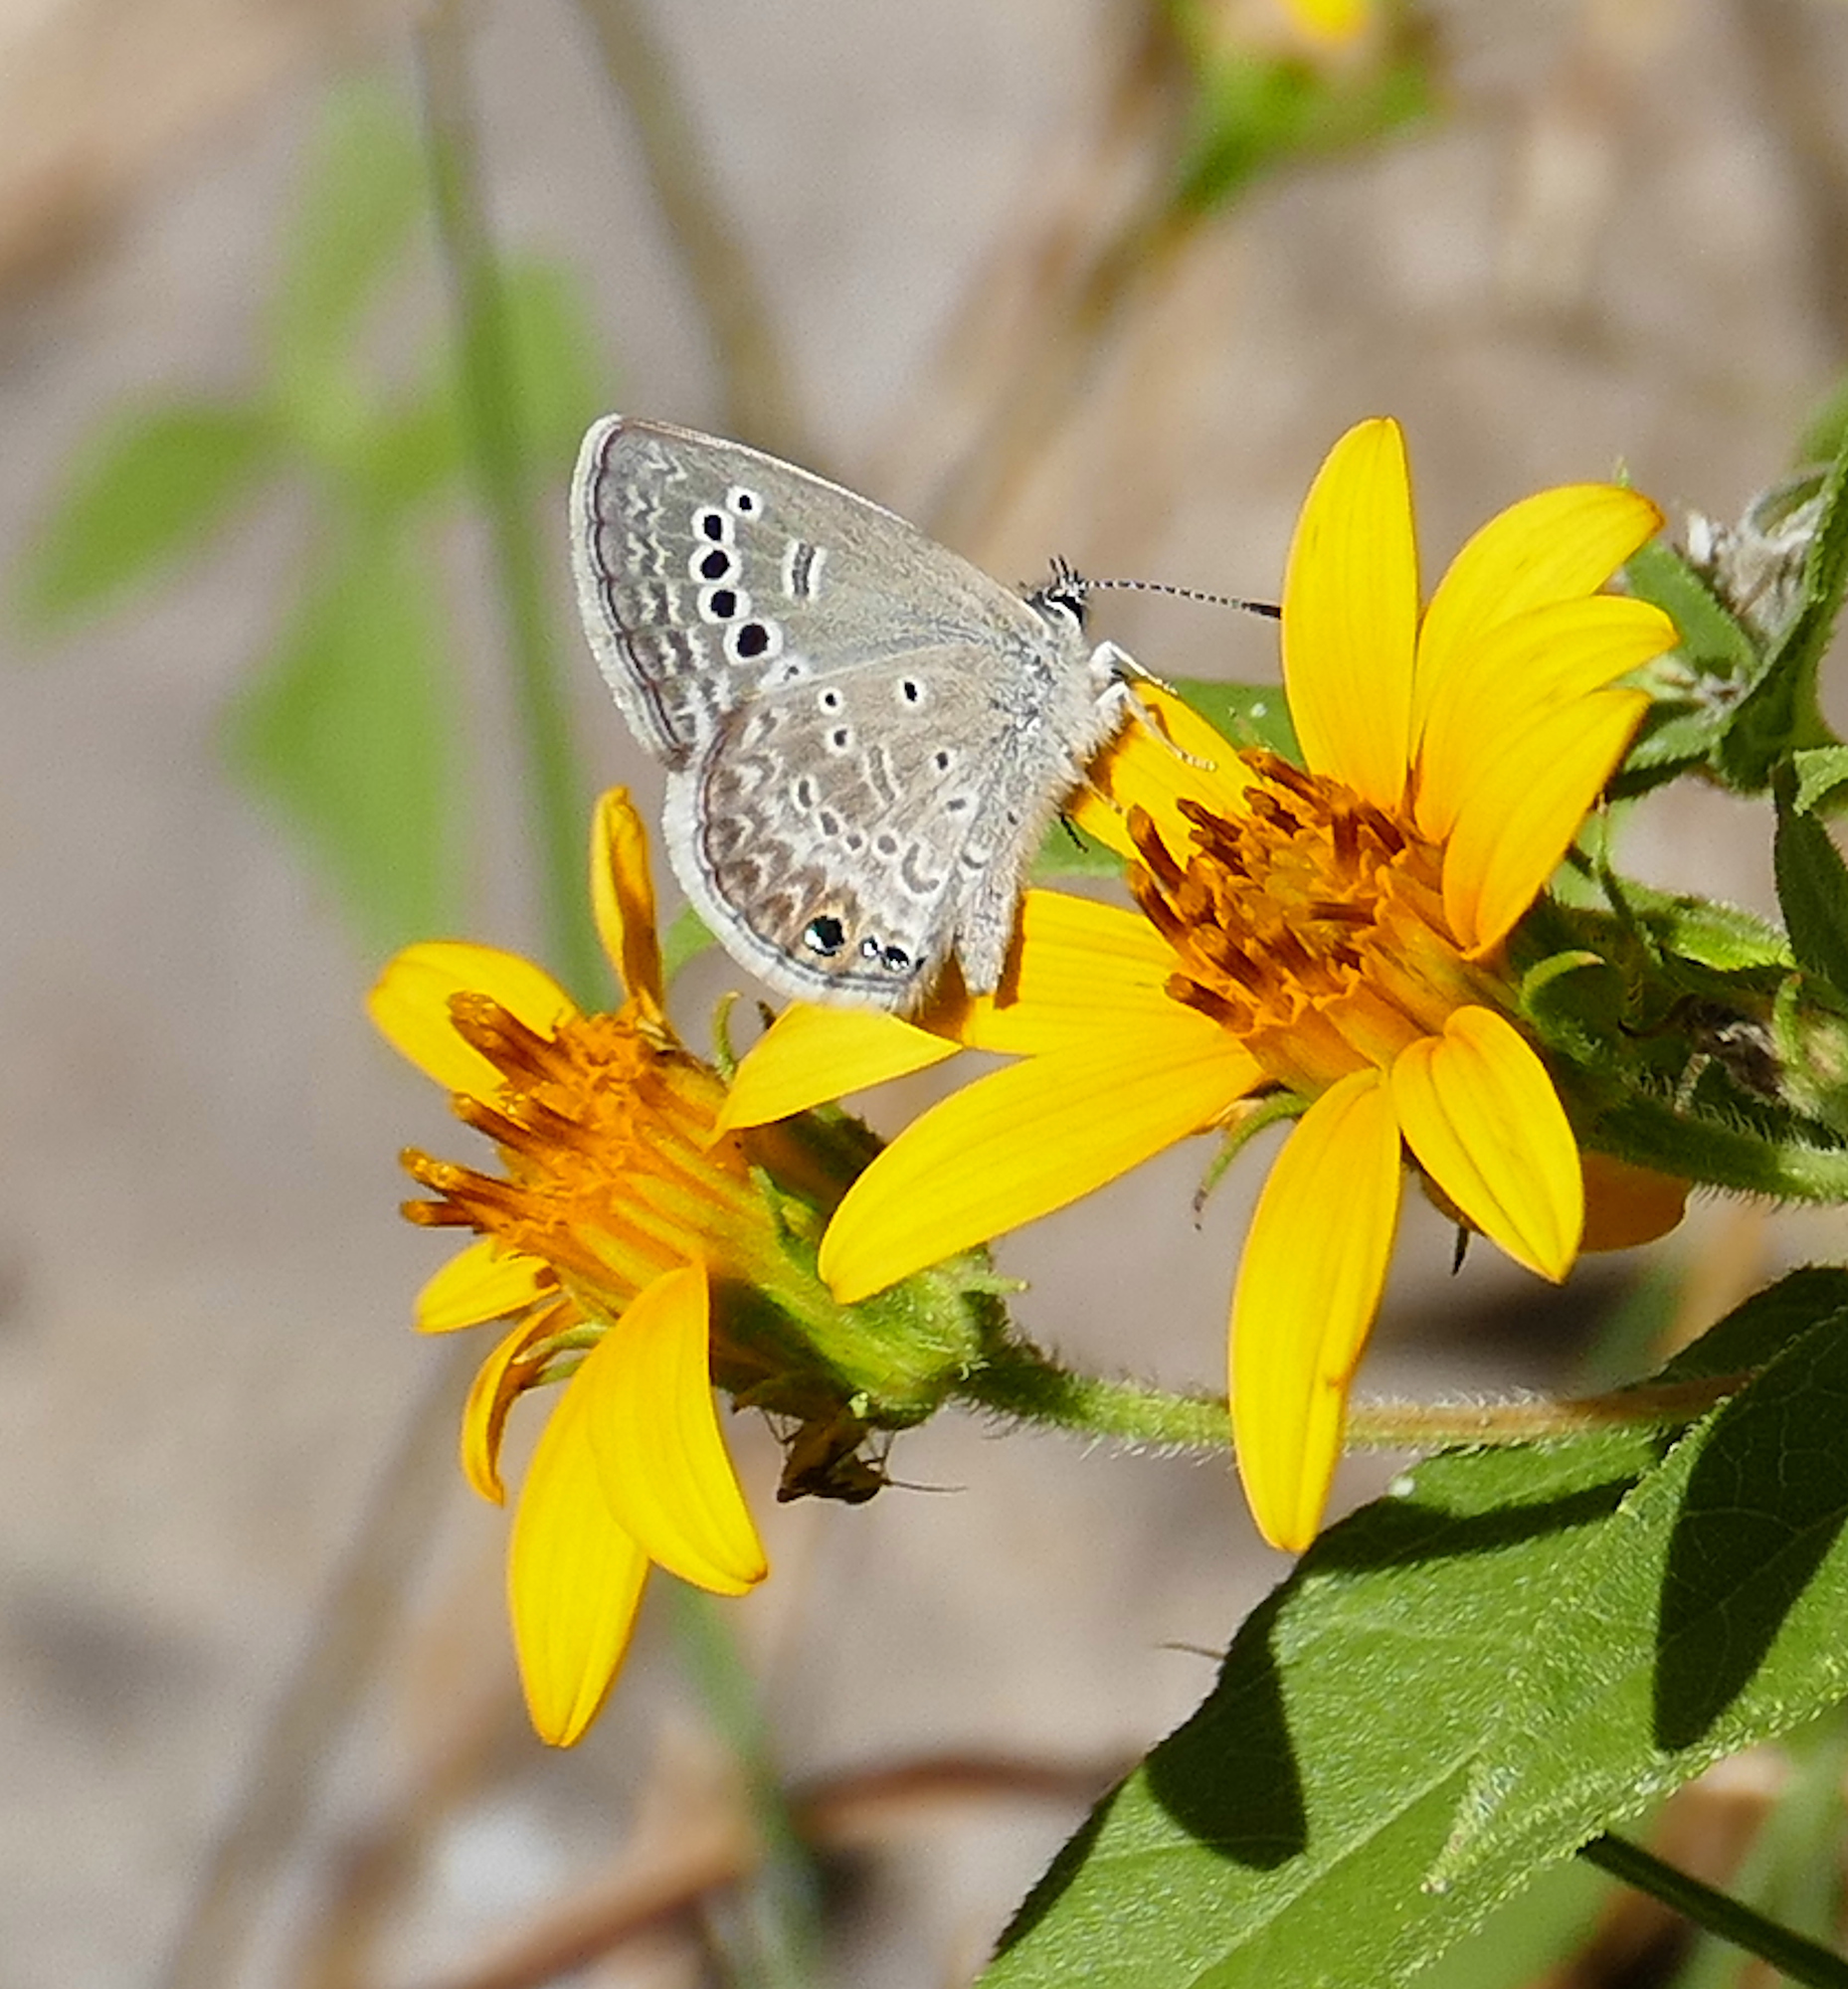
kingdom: Animalia
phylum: Arthropoda
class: Insecta
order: Lepidoptera
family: Lycaenidae
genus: Echinargus
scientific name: Echinargus isola
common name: Reakirt's blue
